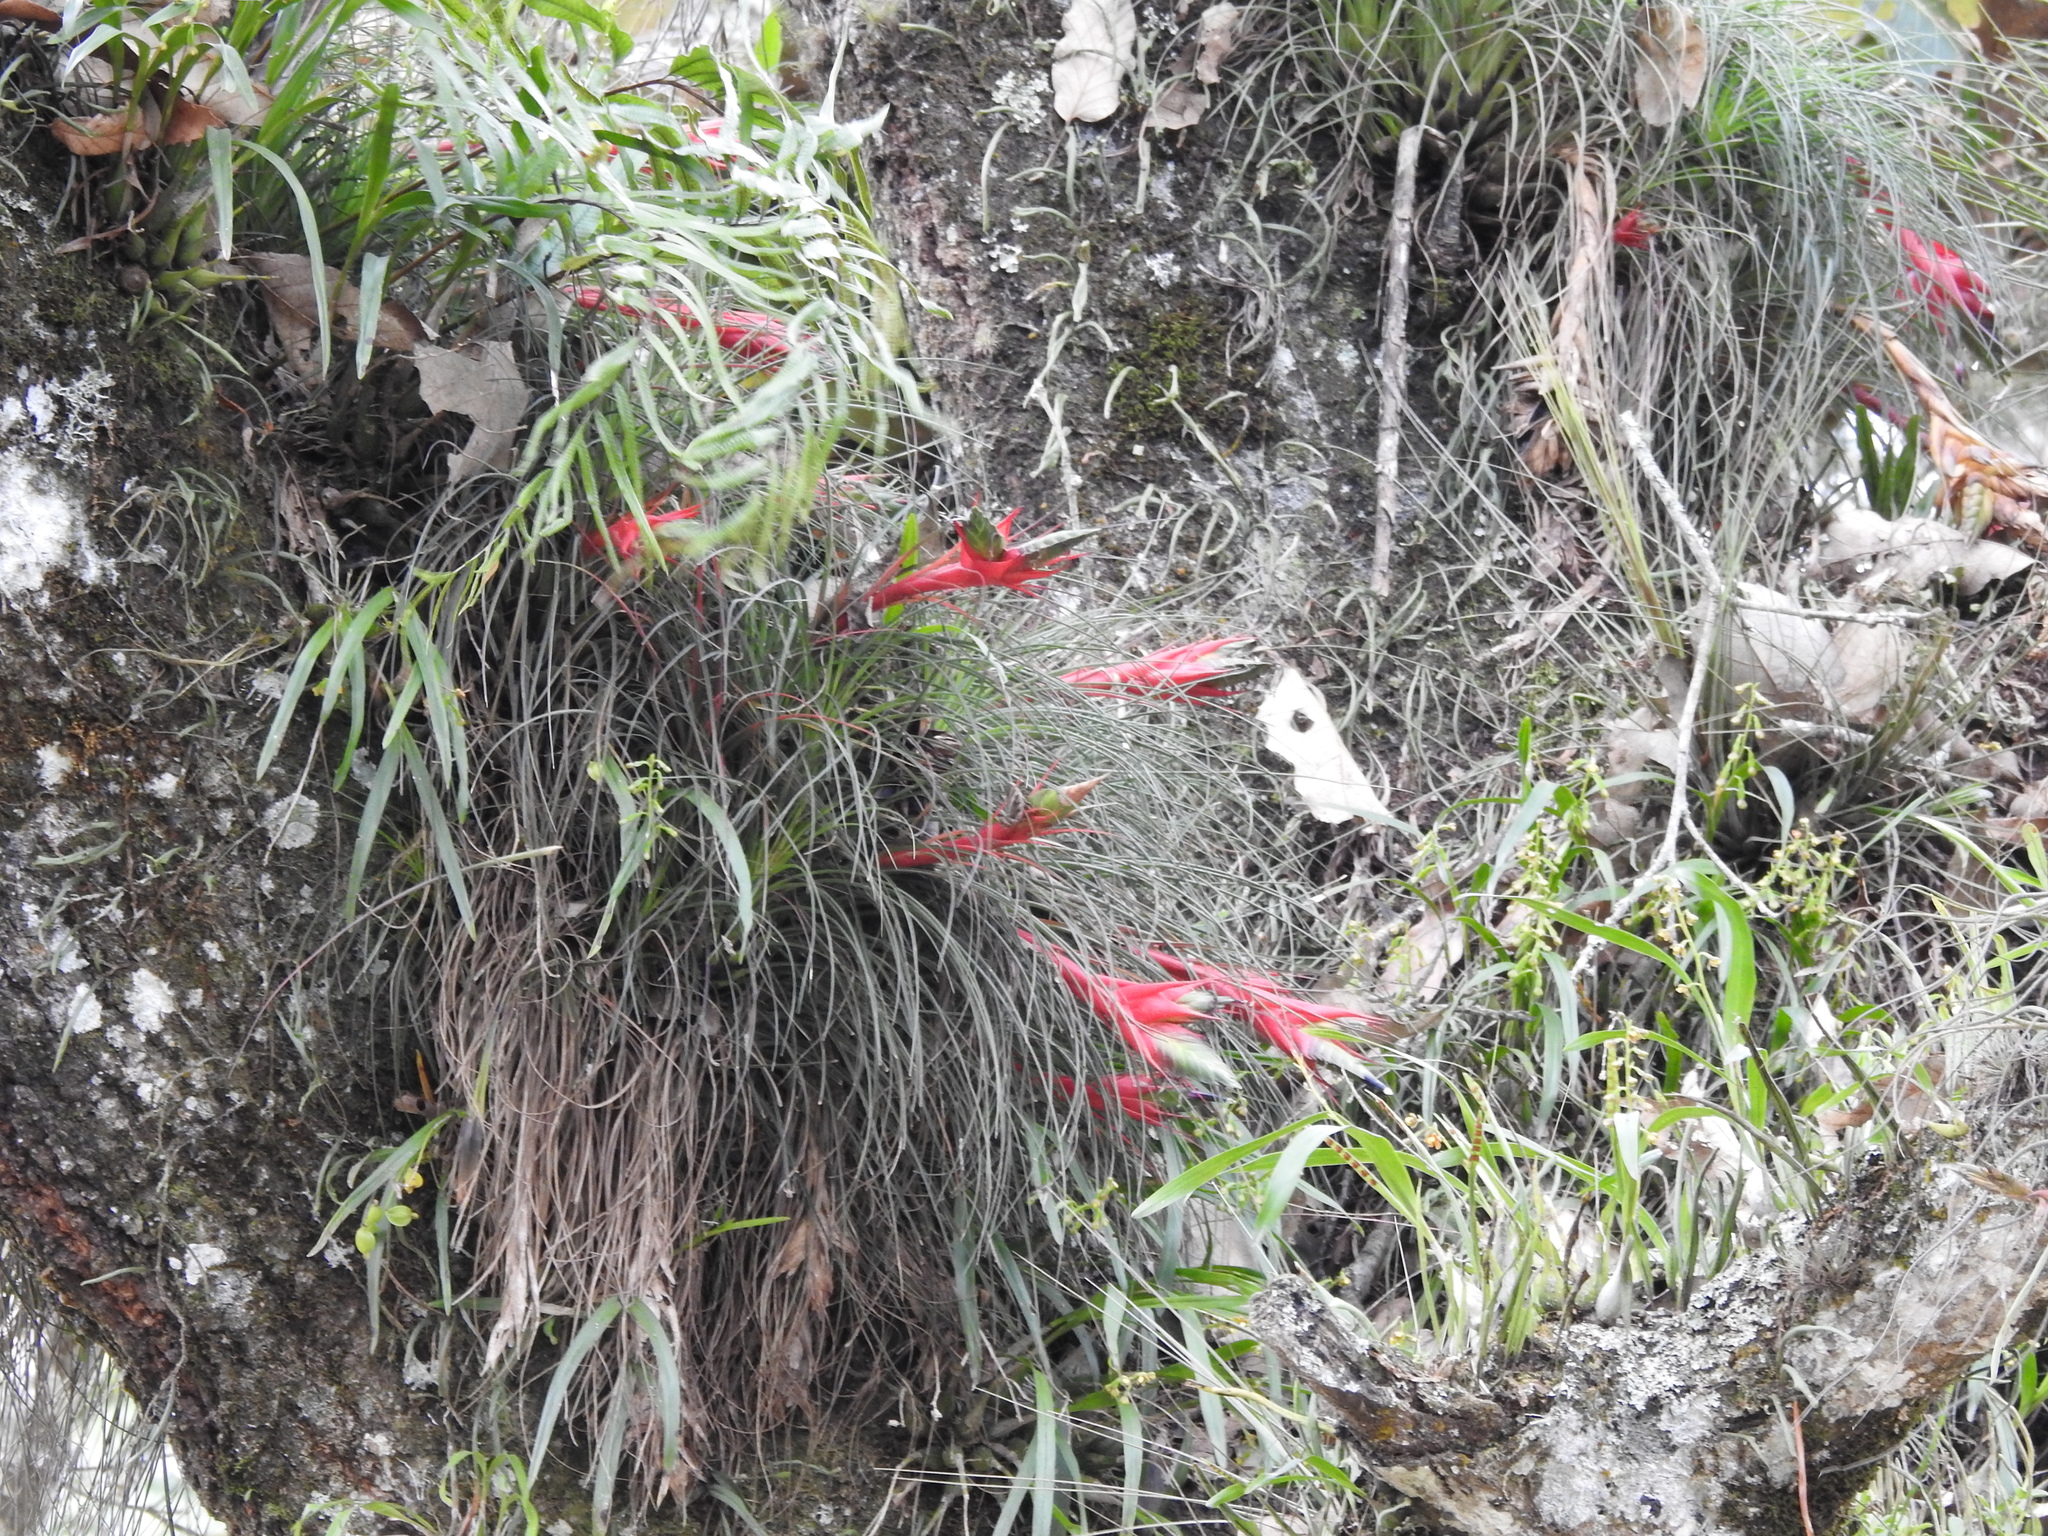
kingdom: Plantae
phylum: Tracheophyta
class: Liliopsida
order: Poales
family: Bromeliaceae
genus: Tillandsia
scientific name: Tillandsia punctulata
